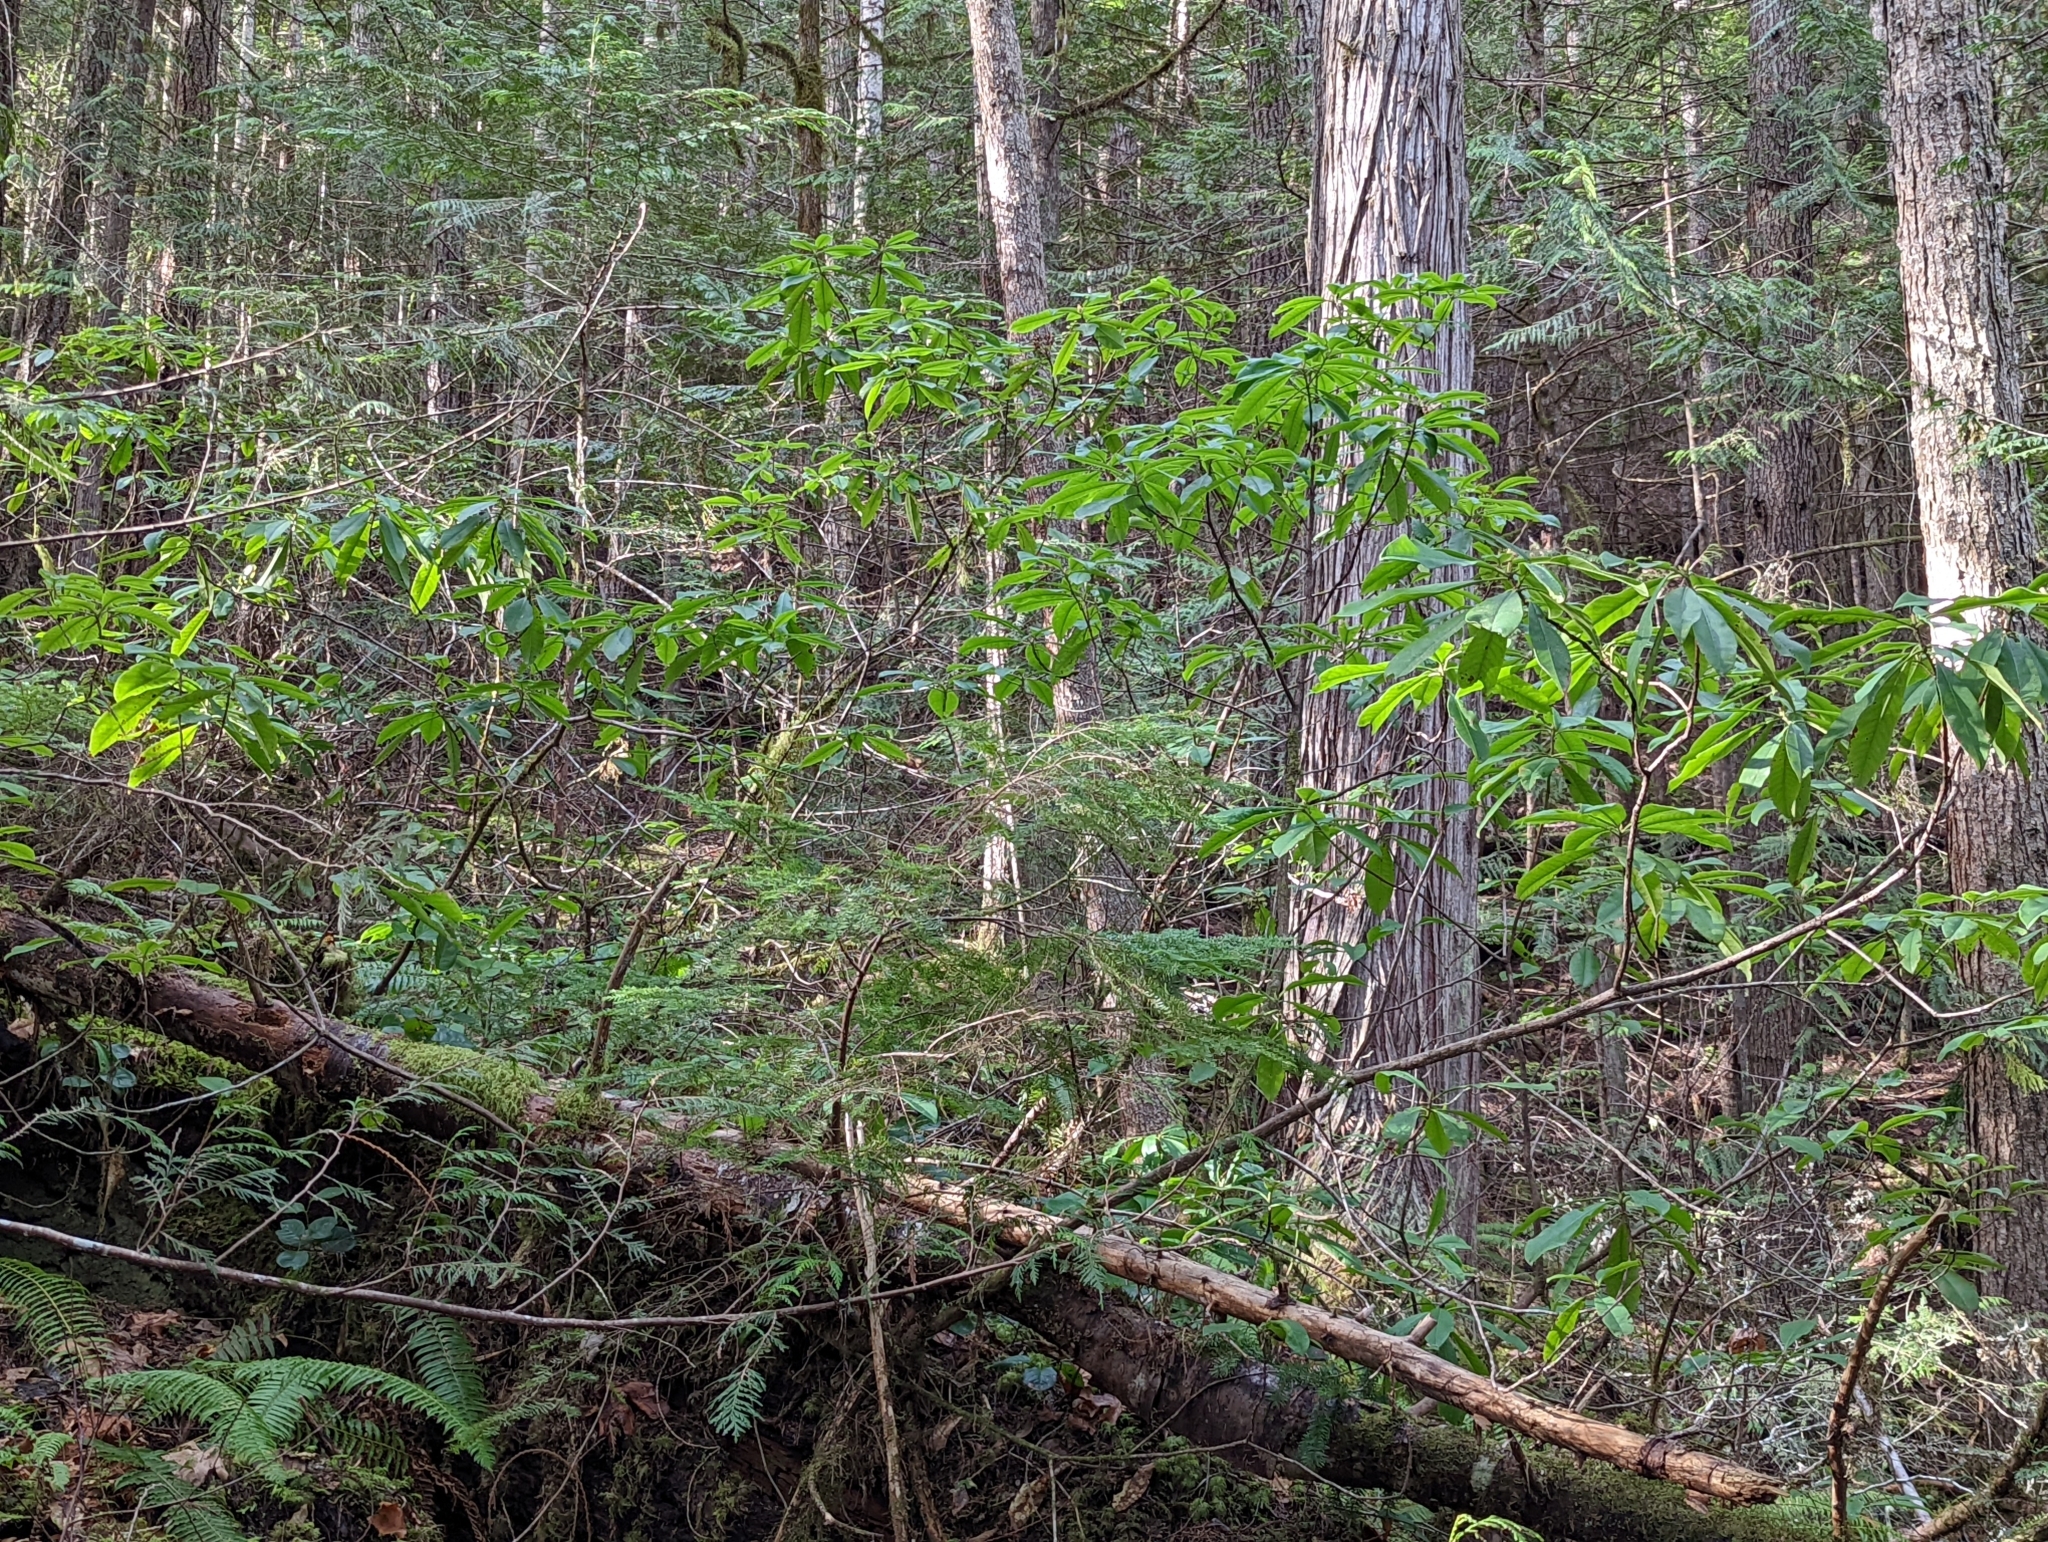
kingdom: Plantae
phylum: Tracheophyta
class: Magnoliopsida
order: Ericales
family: Ericaceae
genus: Rhododendron
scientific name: Rhododendron macrophyllum
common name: California rose bay
